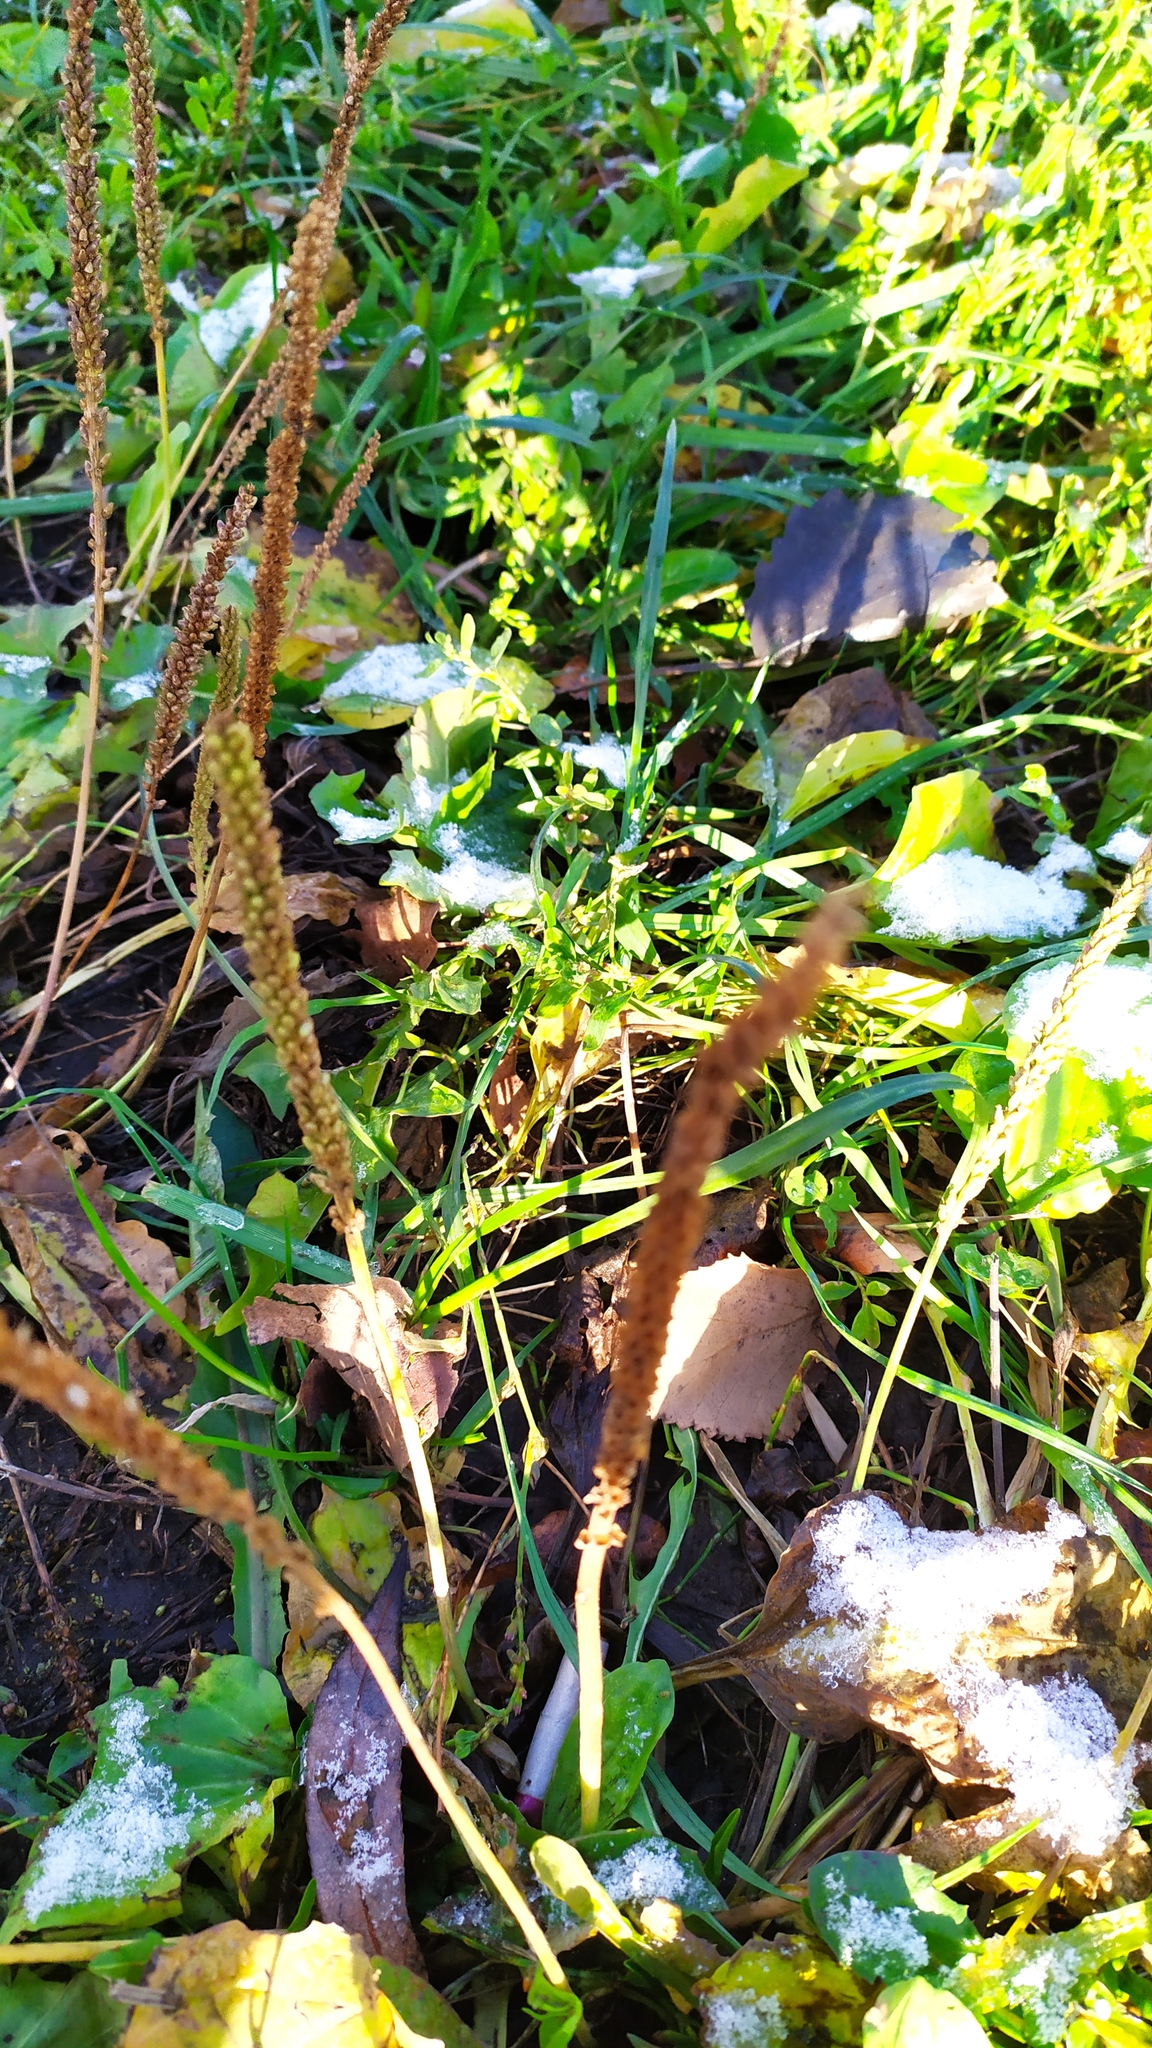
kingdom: Plantae
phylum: Tracheophyta
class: Magnoliopsida
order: Lamiales
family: Plantaginaceae
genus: Plantago
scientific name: Plantago major
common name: Common plantain
